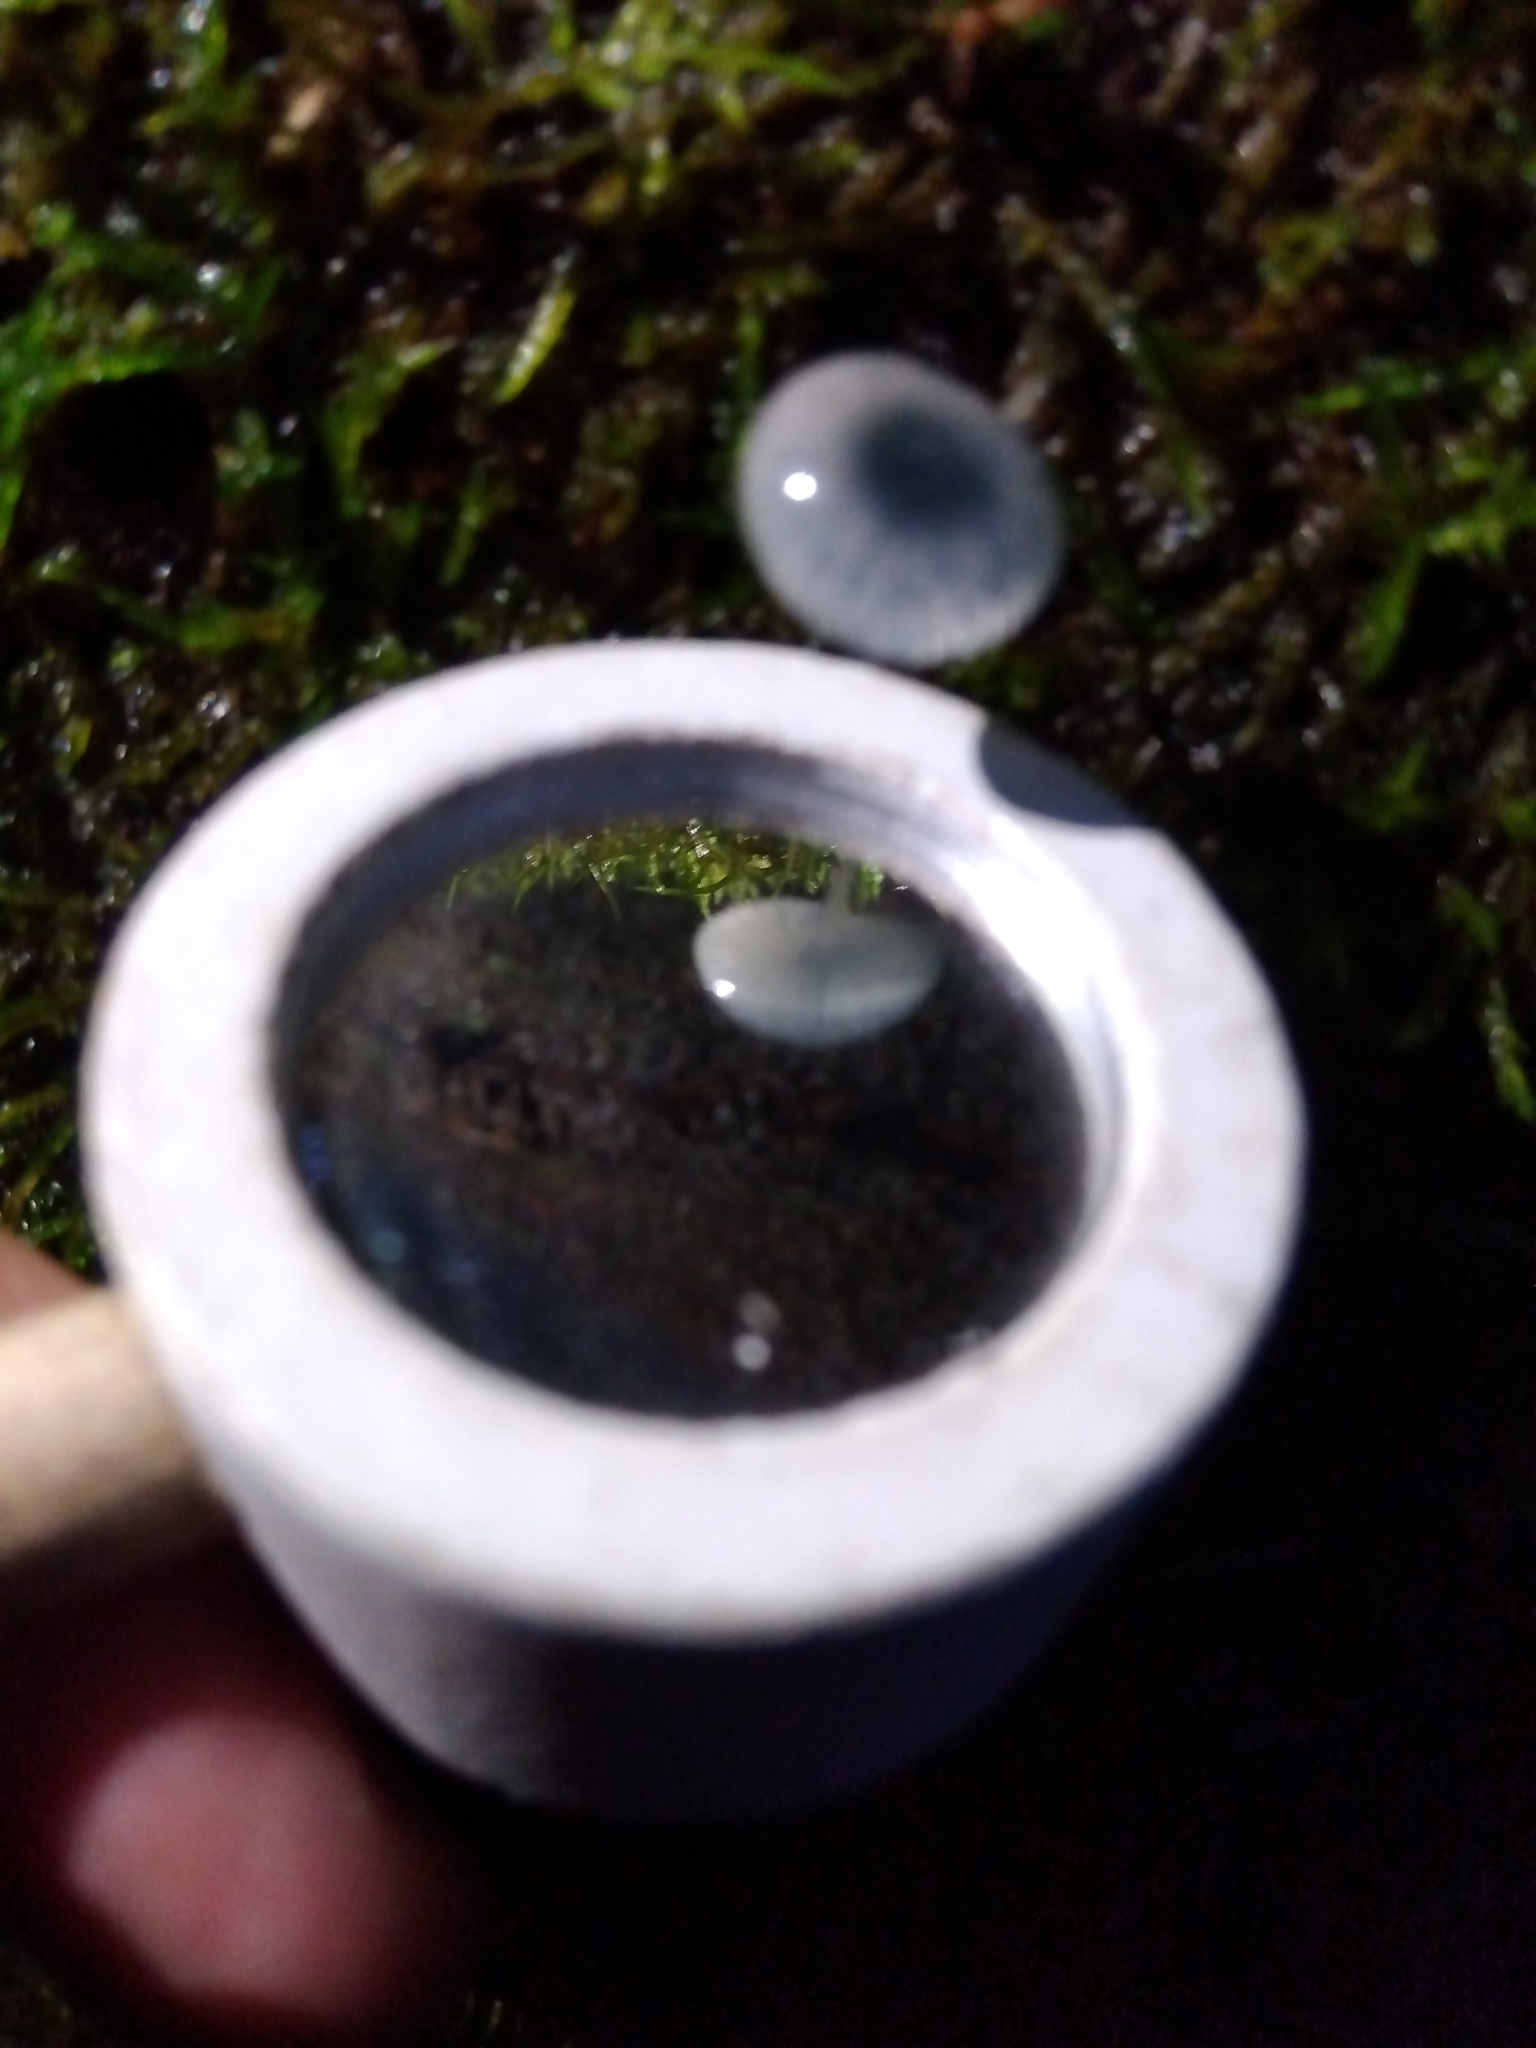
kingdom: Fungi
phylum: Basidiomycota
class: Agaricomycetes
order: Agaricales
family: Mycenaceae
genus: Mycena
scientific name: Mycena interrupta
